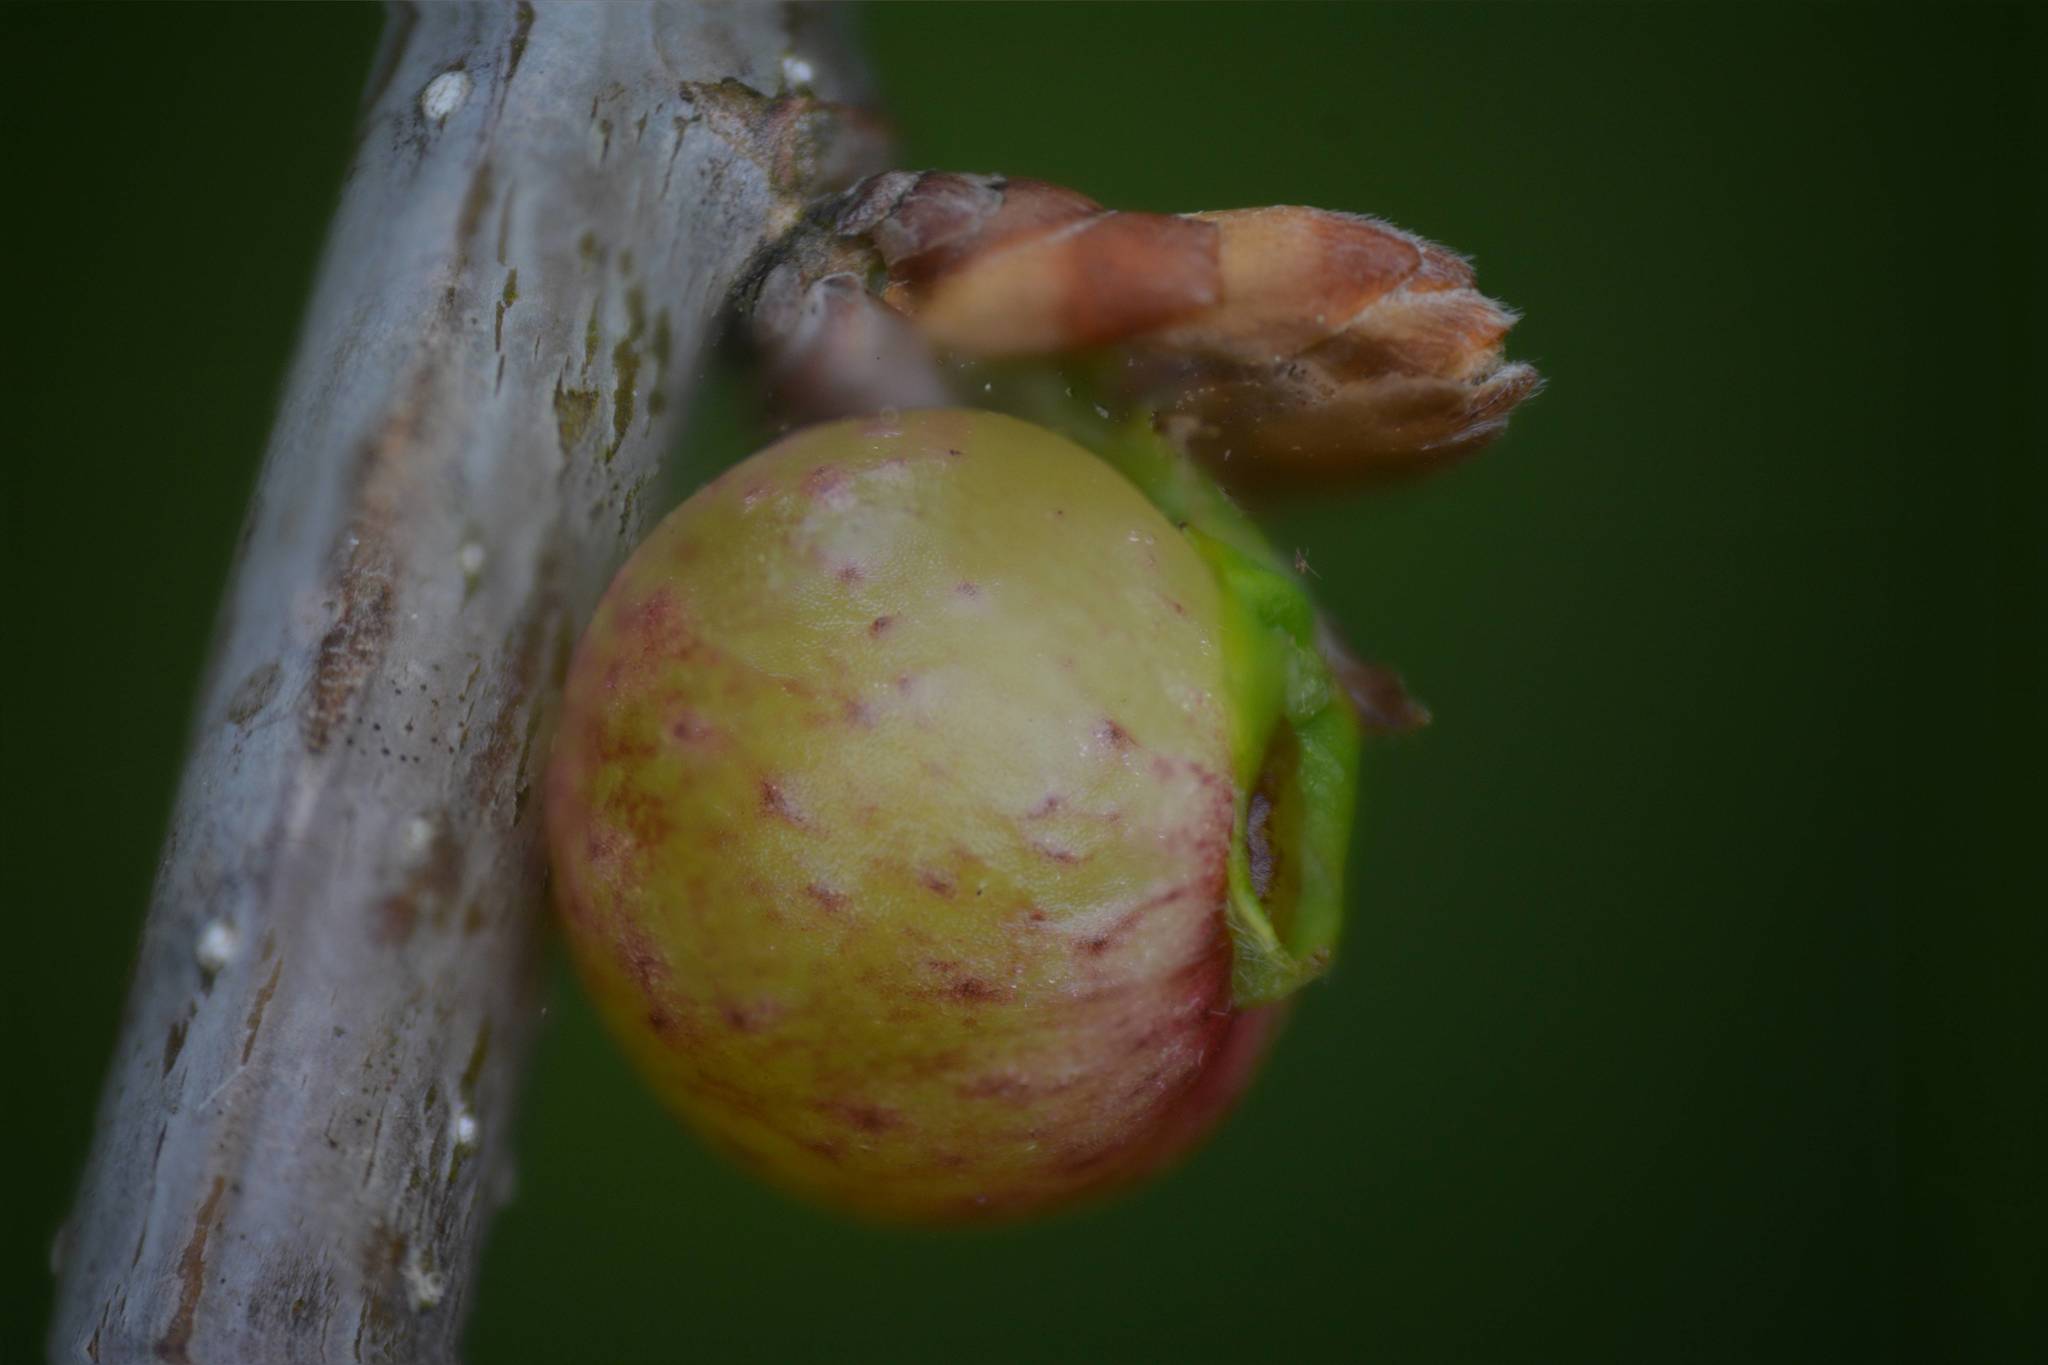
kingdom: Animalia
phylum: Arthropoda
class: Insecta
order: Hymenoptera
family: Cynipidae
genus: Neuroterus
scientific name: Neuroterus quercusbaccarum
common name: Common spangle gall
